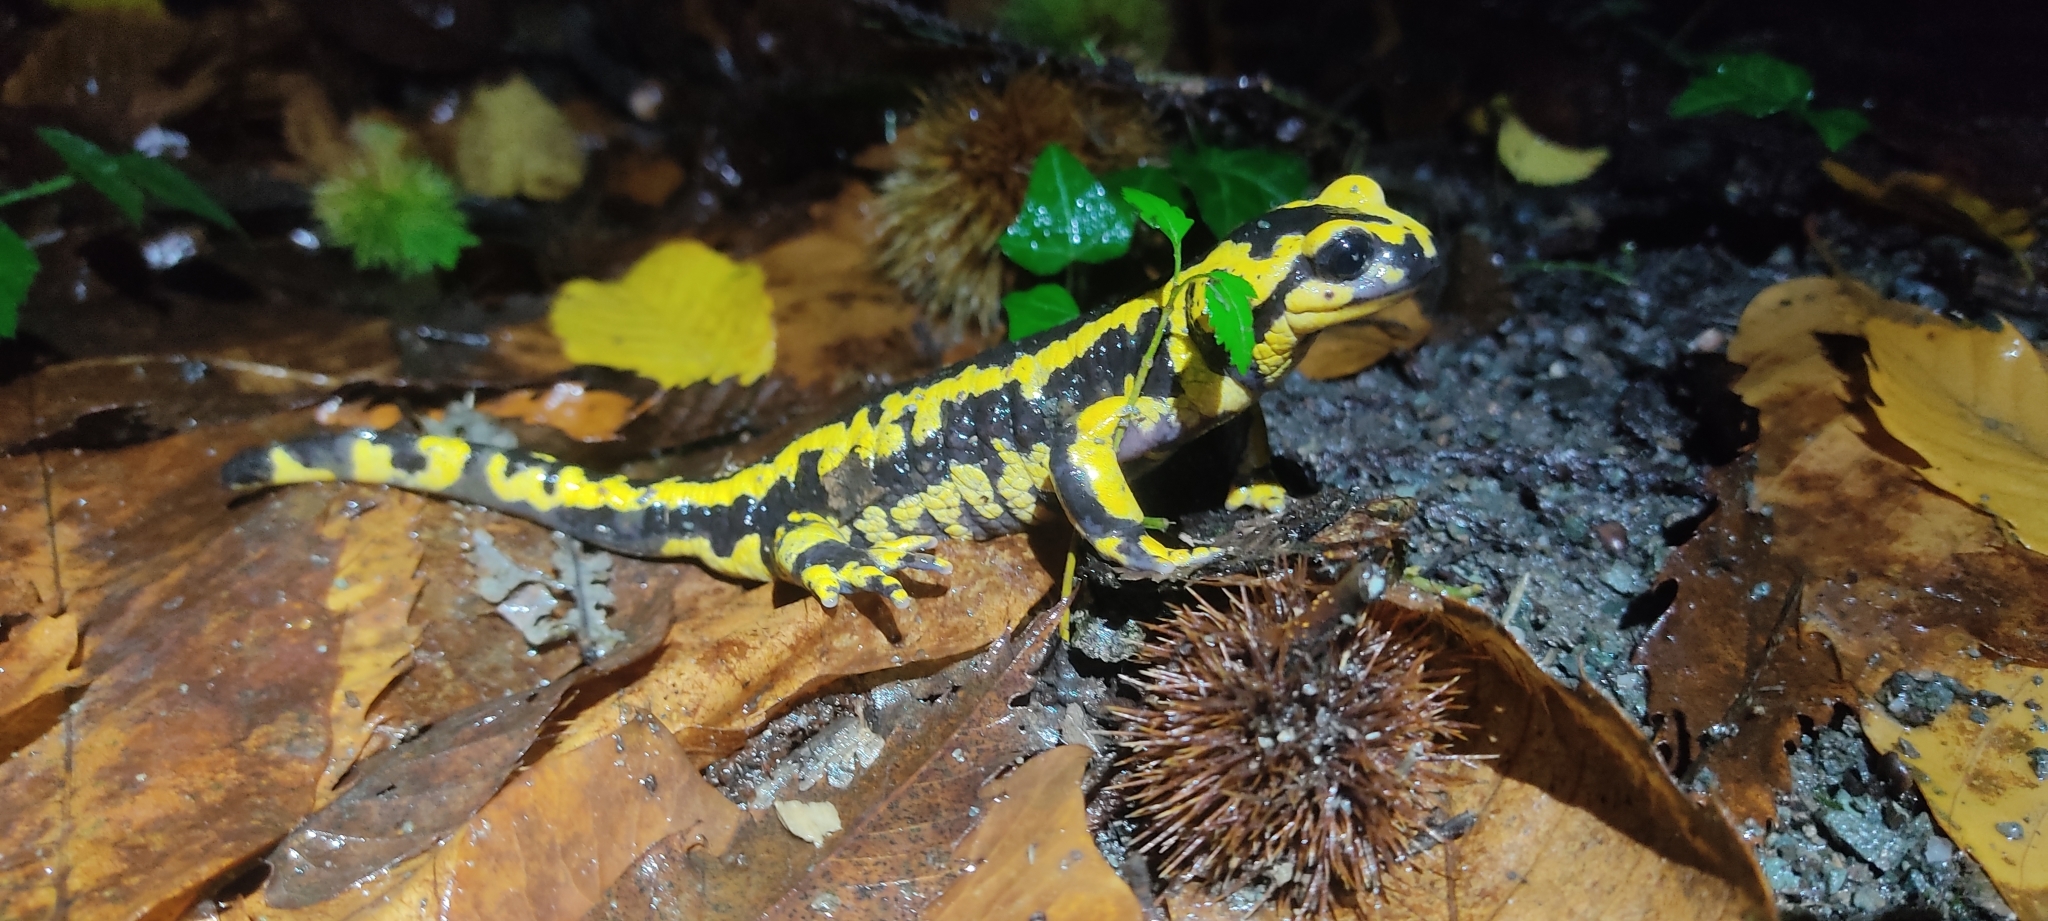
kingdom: Animalia
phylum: Chordata
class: Amphibia
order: Caudata
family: Salamandridae
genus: Salamandra
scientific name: Salamandra salamandra
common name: Fire salamander
